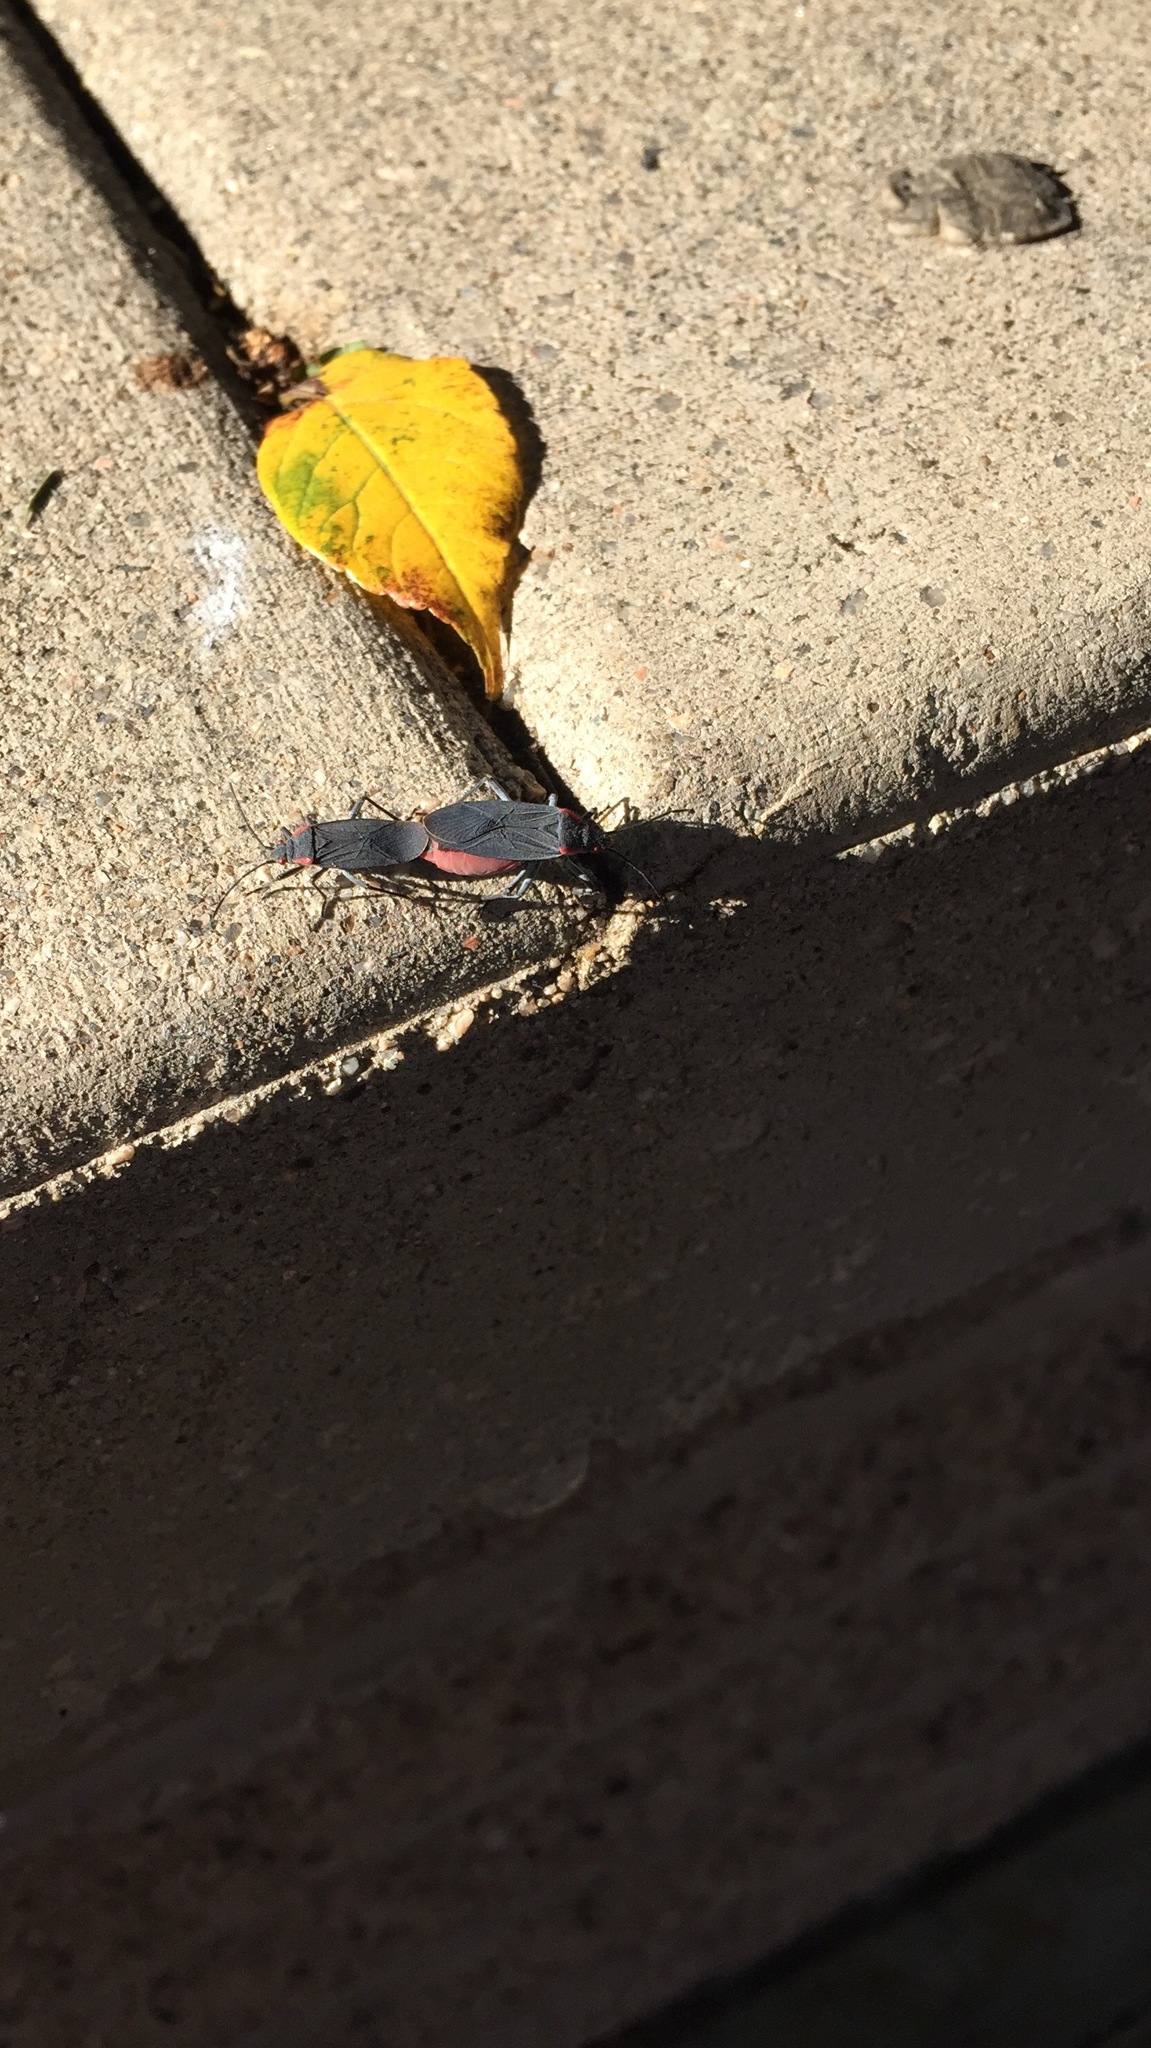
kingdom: Animalia
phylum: Arthropoda
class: Insecta
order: Hemiptera
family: Rhopalidae
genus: Jadera
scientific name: Jadera haematoloma
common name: Red-shouldered bug
